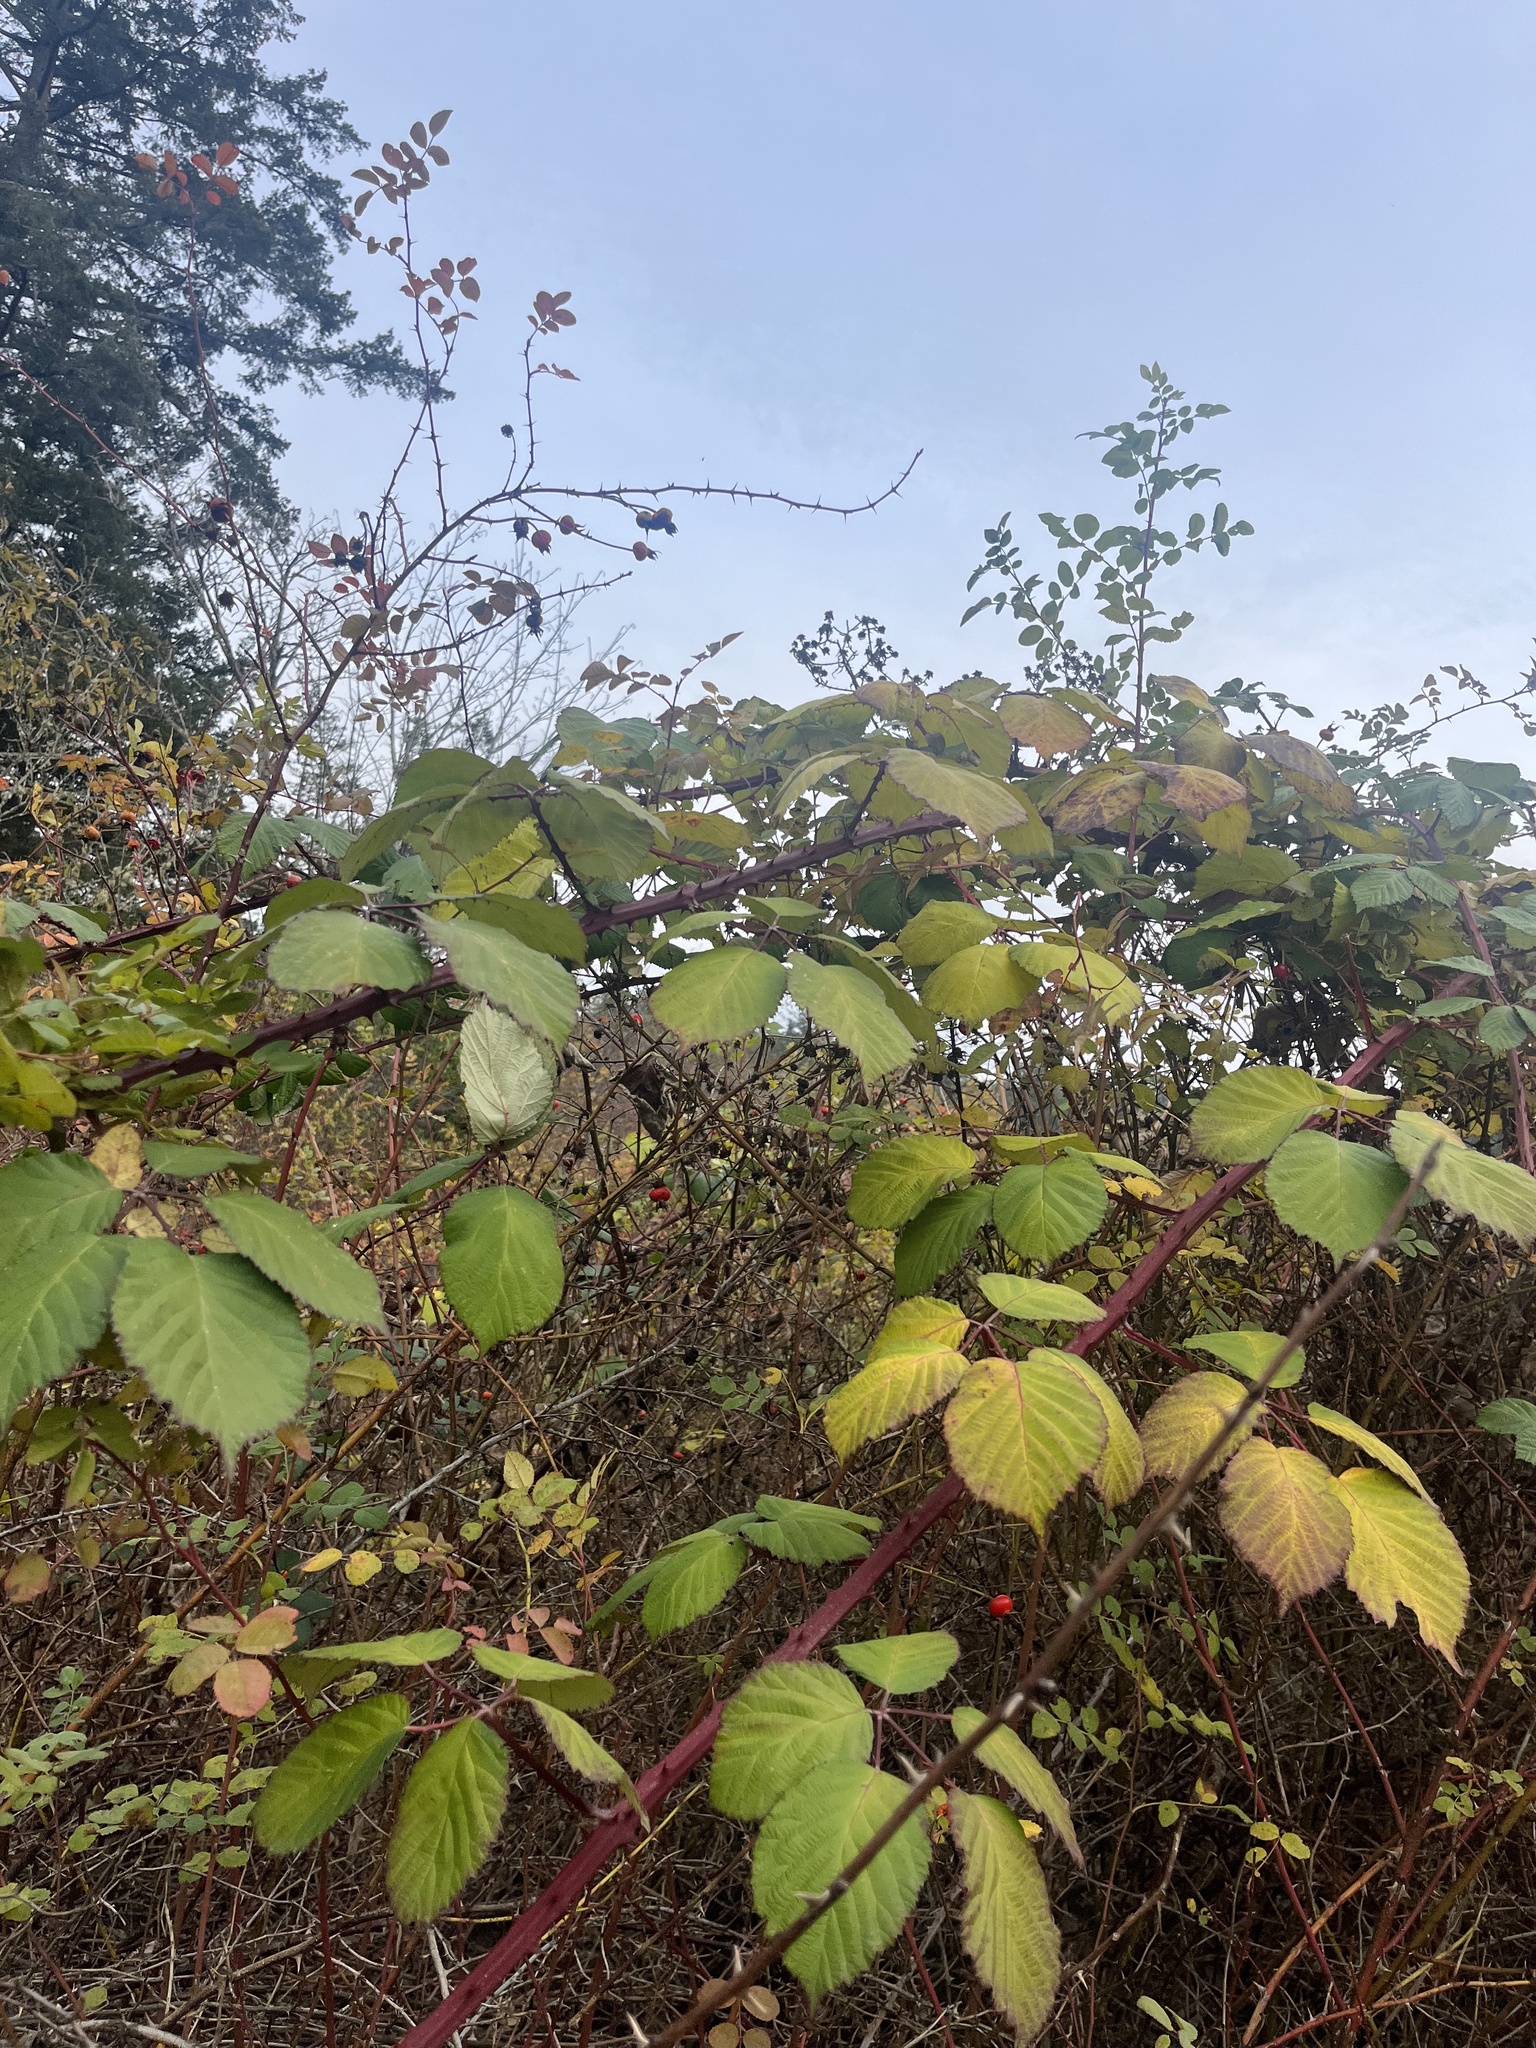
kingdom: Plantae
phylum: Tracheophyta
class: Magnoliopsida
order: Rosales
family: Rosaceae
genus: Rubus
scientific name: Rubus bifrons
